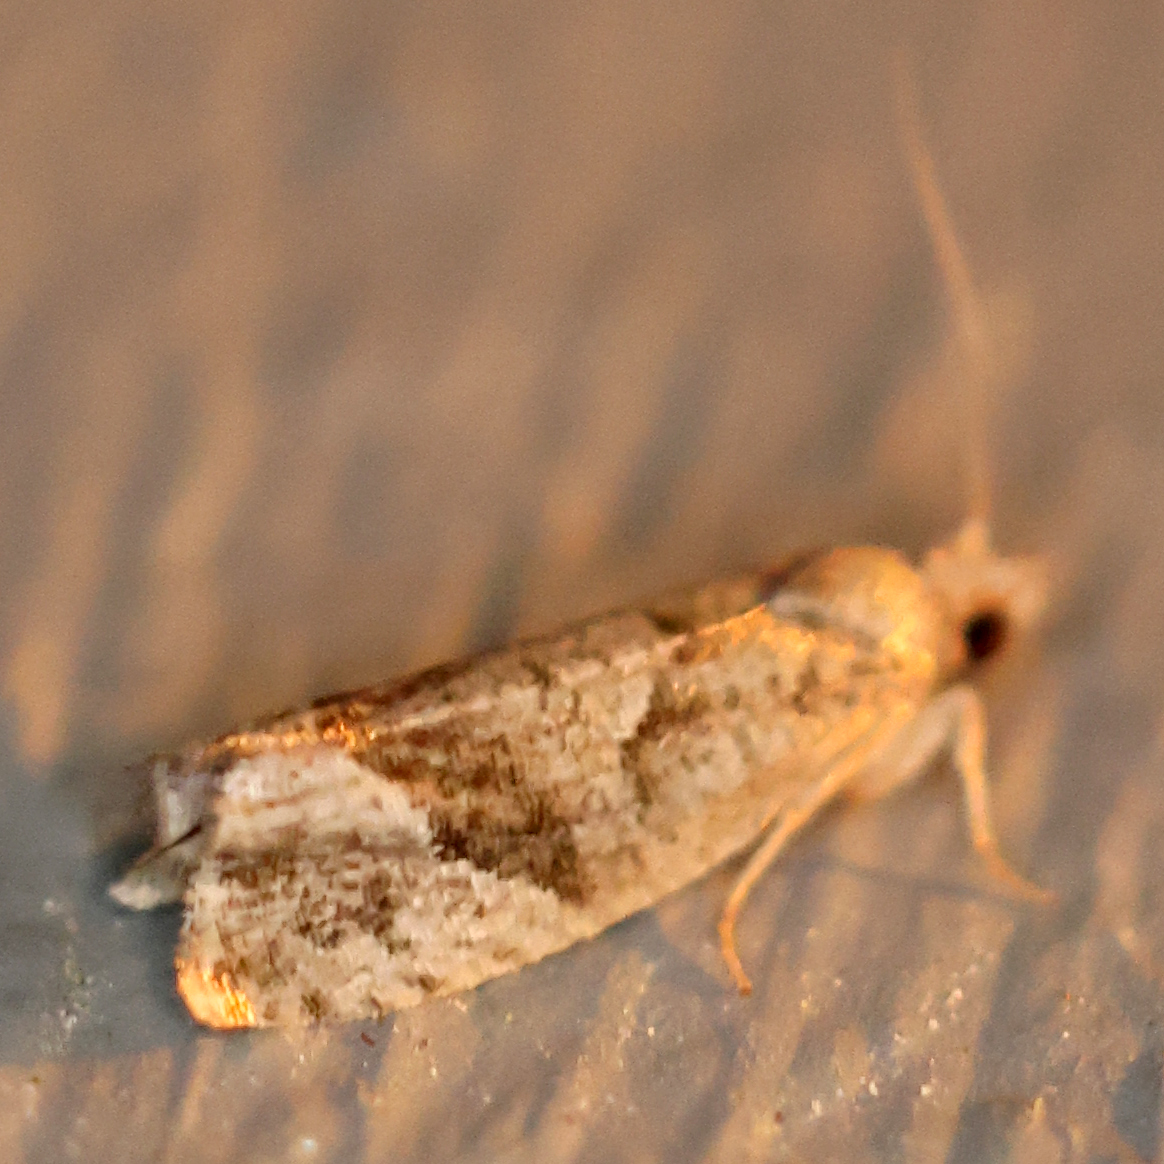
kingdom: Animalia
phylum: Arthropoda
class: Insecta
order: Lepidoptera
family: Tortricidae
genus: Pelochrista
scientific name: Pelochrista derelicta
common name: Derelict pelochrista moth
